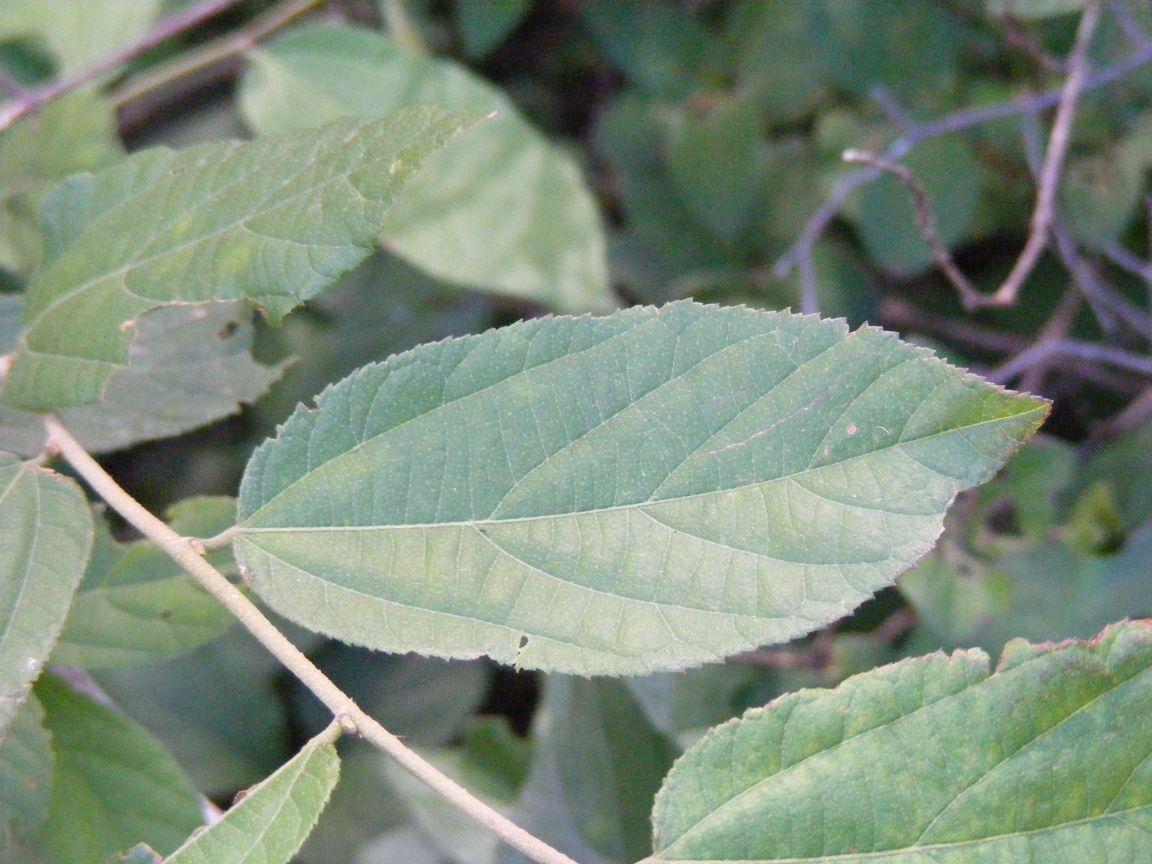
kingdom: Plantae
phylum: Tracheophyta
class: Magnoliopsida
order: Malvales
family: Malvaceae
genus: Grewia
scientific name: Grewia flavescens
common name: Sandpaper raisin
